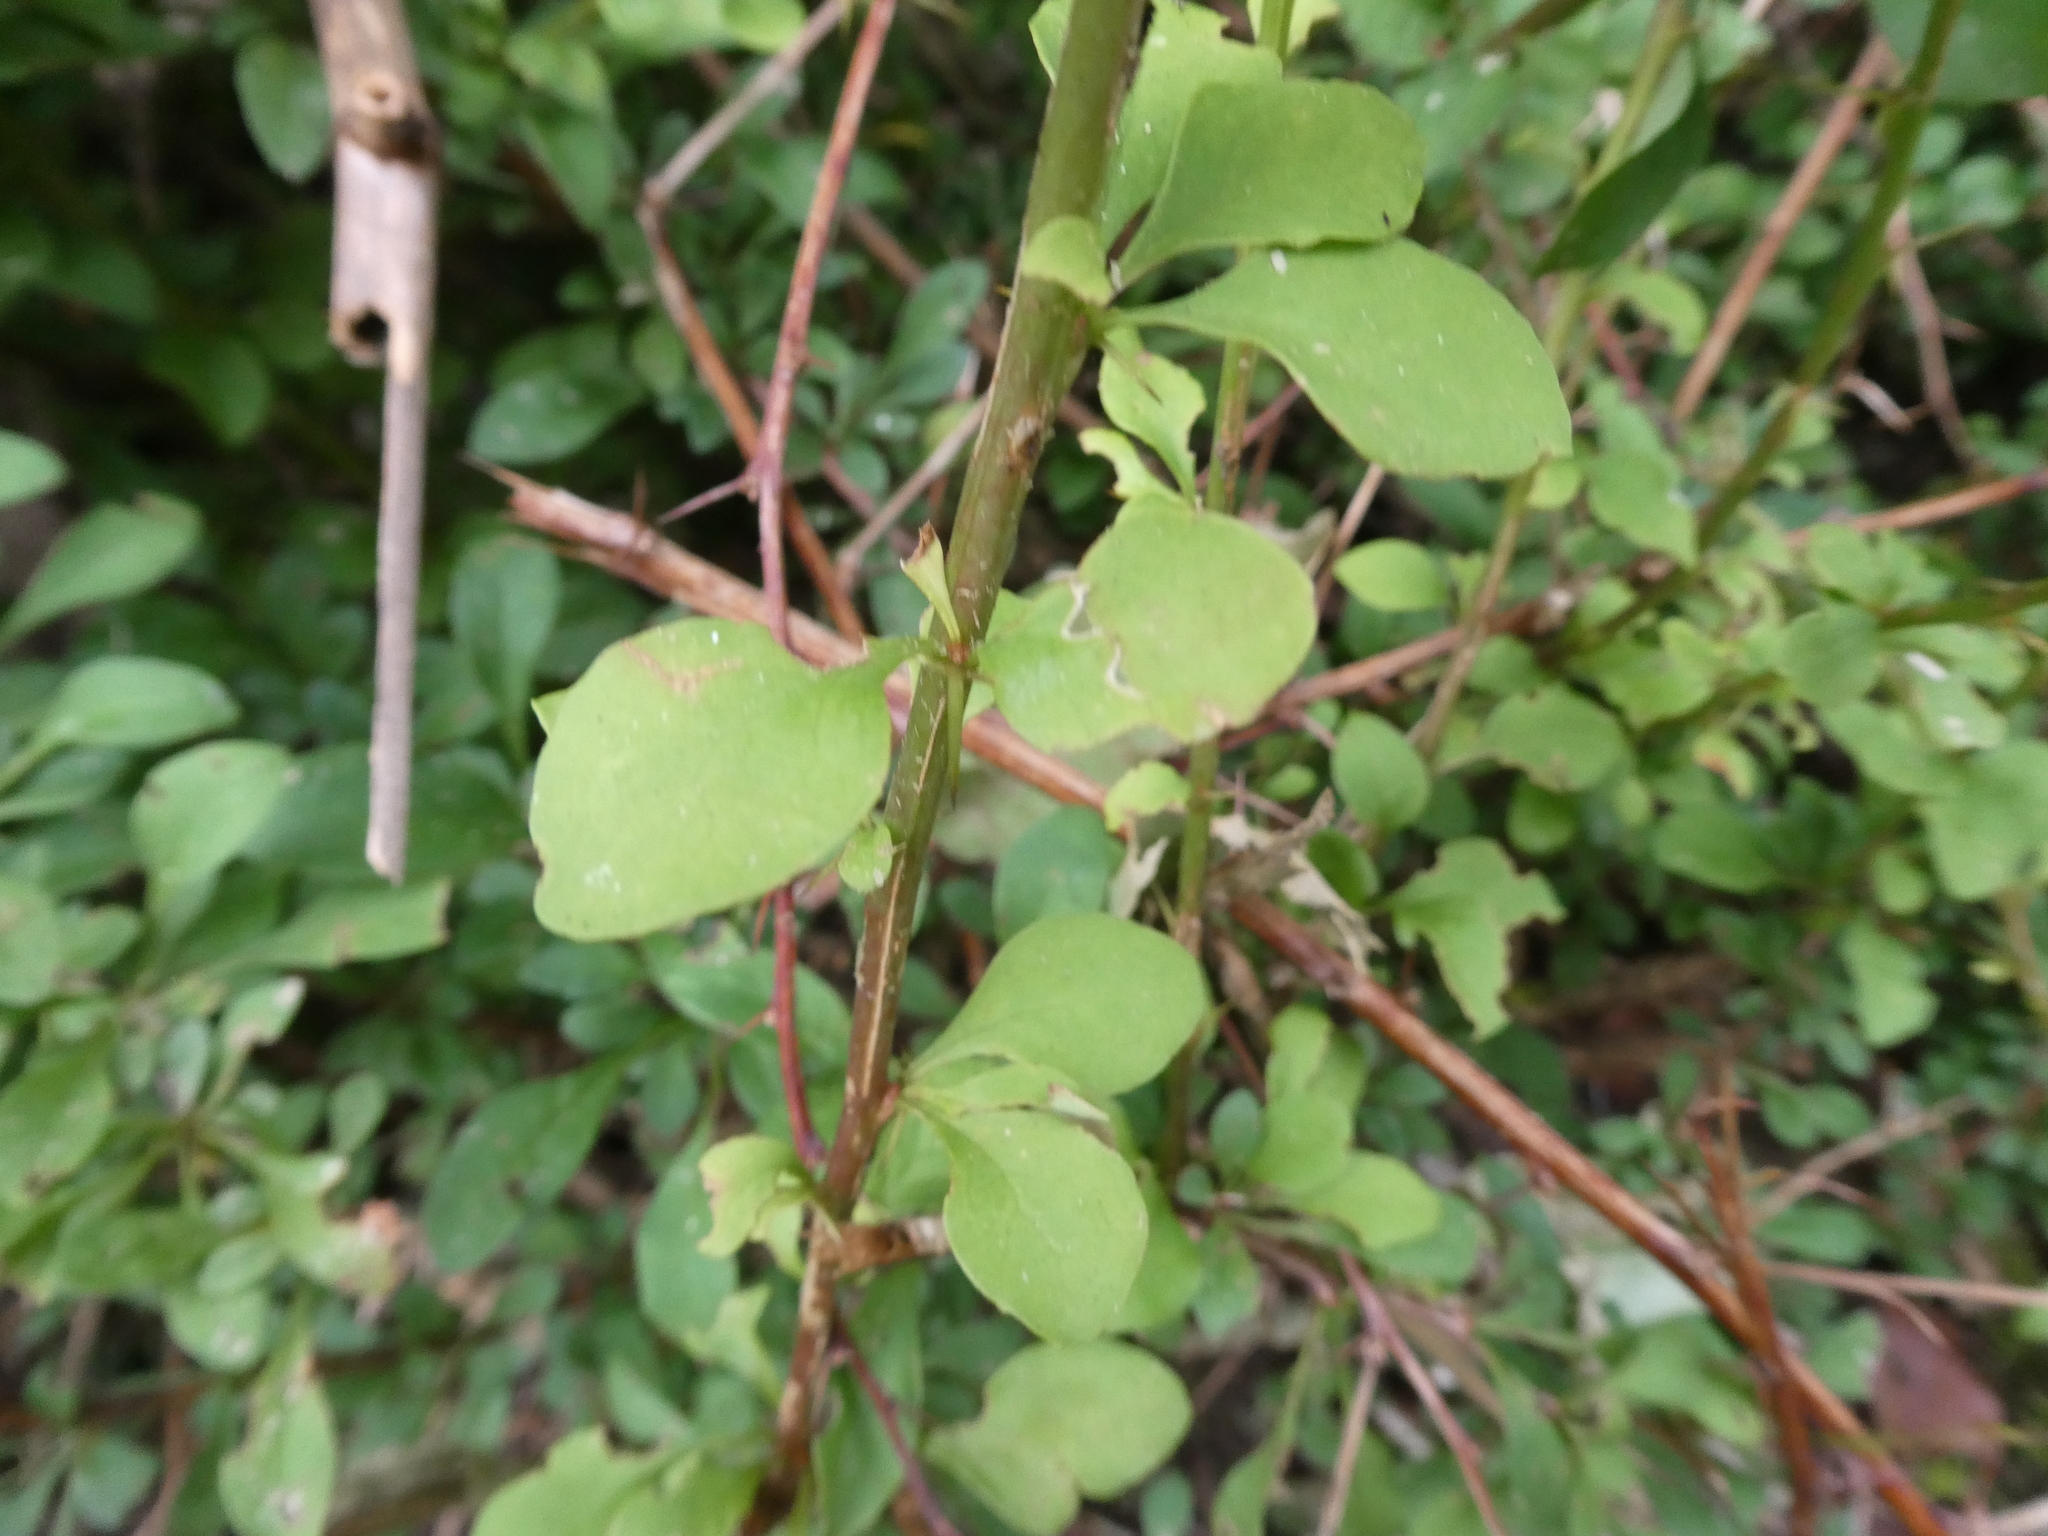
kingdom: Plantae
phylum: Tracheophyta
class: Magnoliopsida
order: Ranunculales
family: Berberidaceae
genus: Berberis
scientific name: Berberis thunbergii
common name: Japanese barberry
